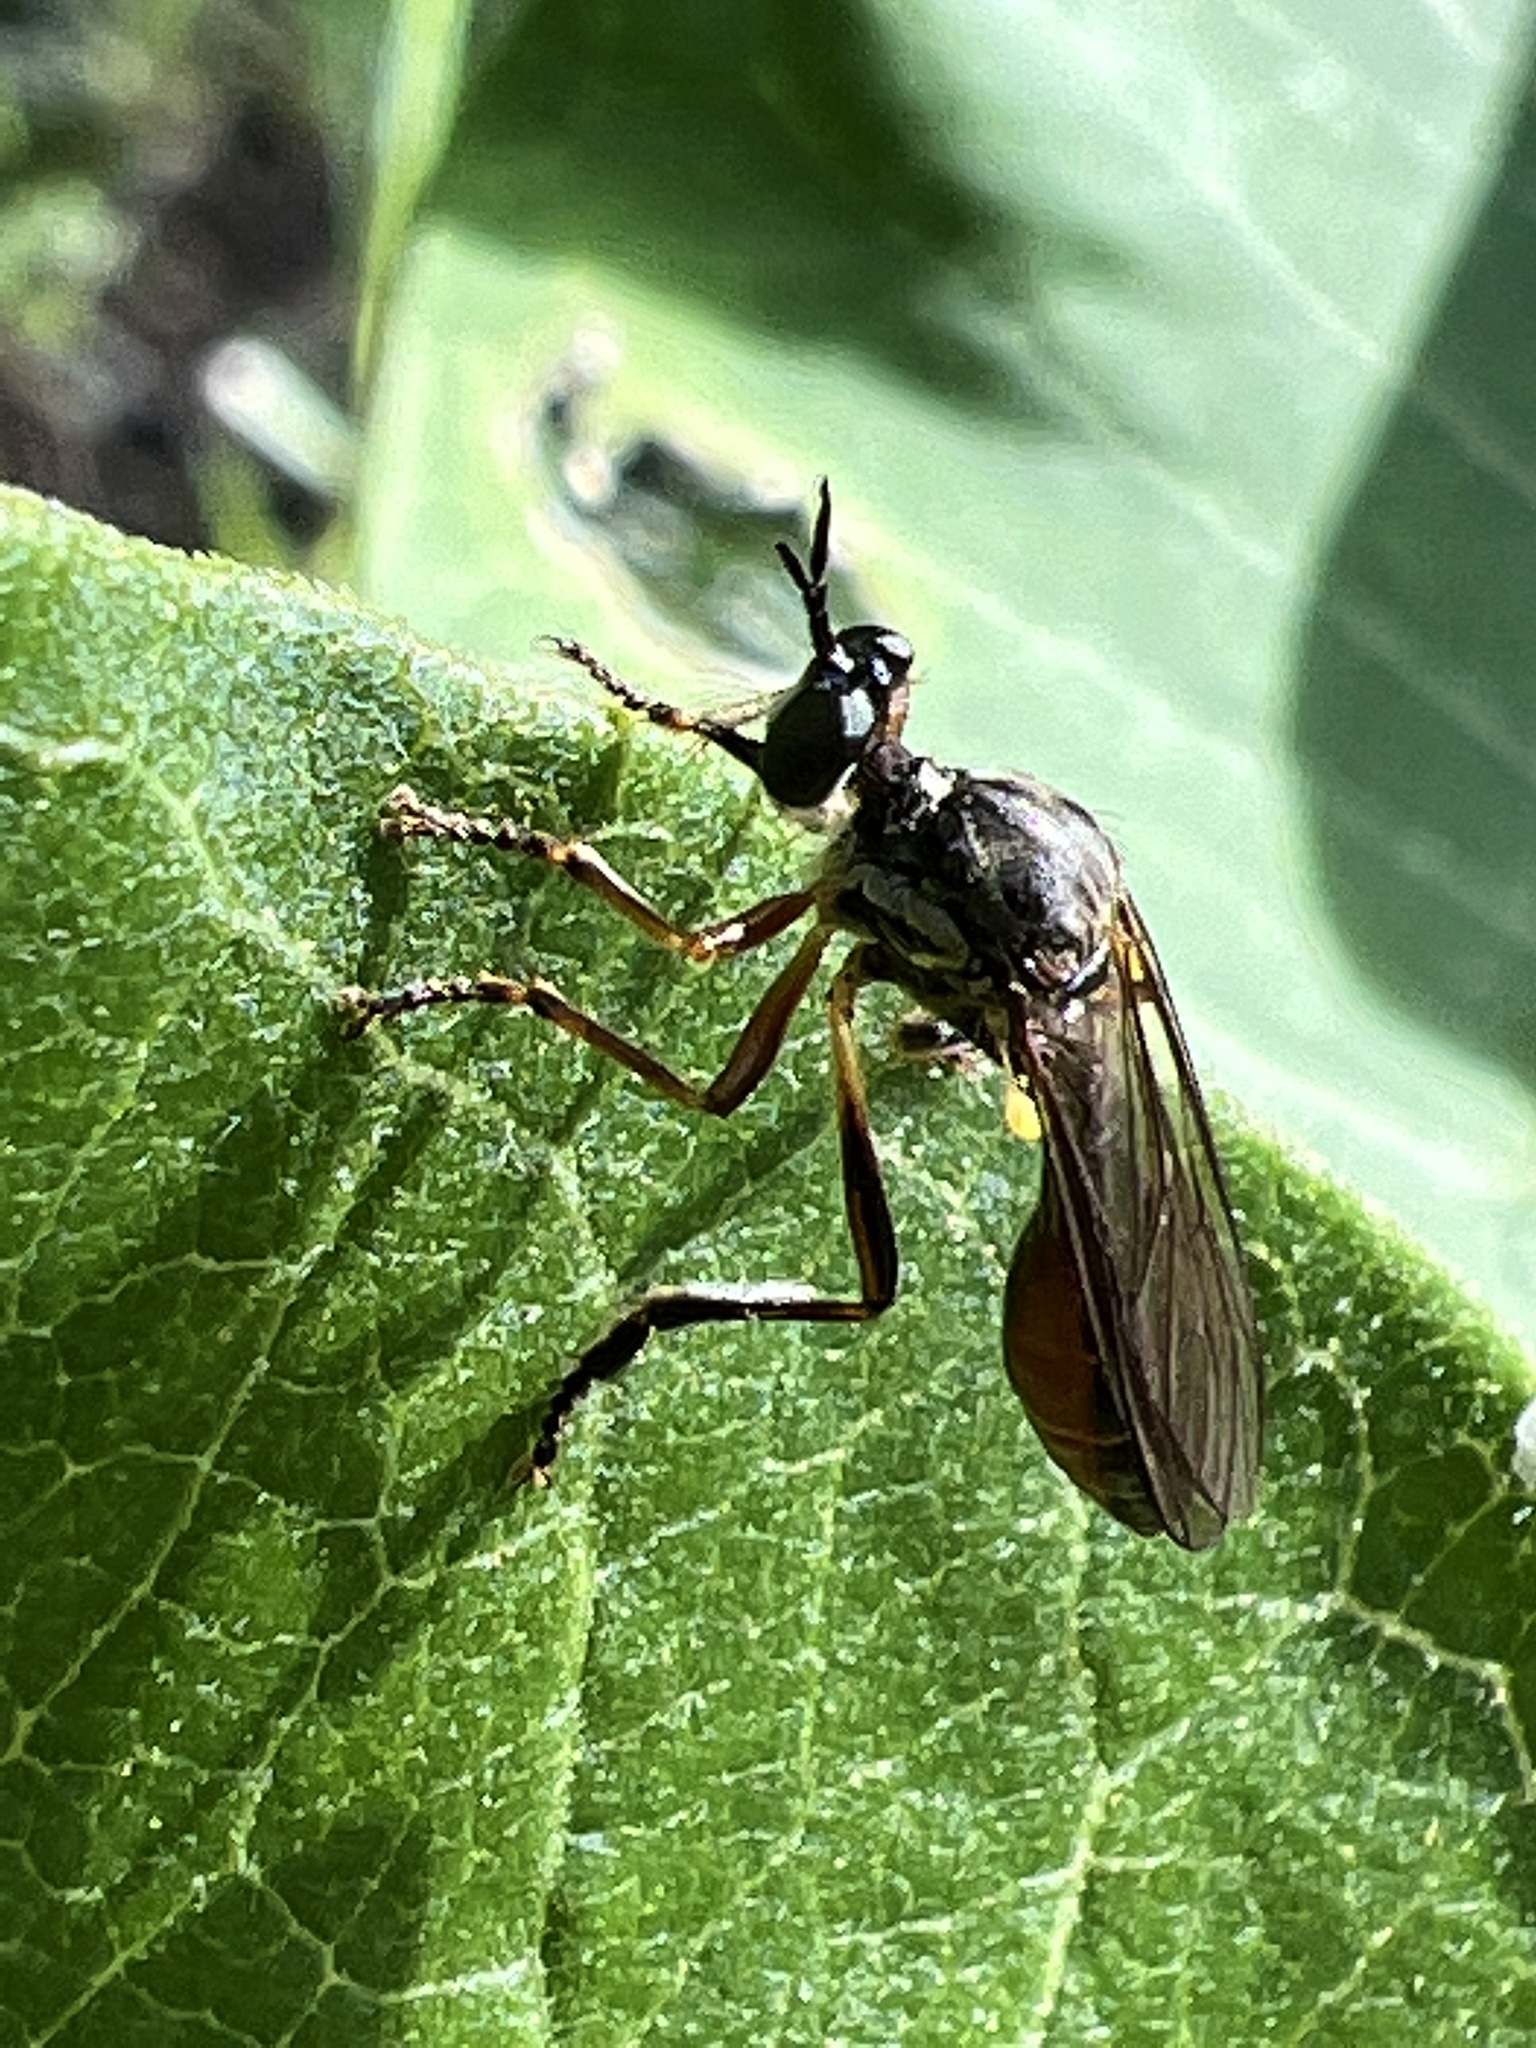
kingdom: Animalia
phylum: Arthropoda
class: Insecta
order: Diptera
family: Asilidae
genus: Dioctria
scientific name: Dioctria hyalipennis
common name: Stripe-legged robberfly
